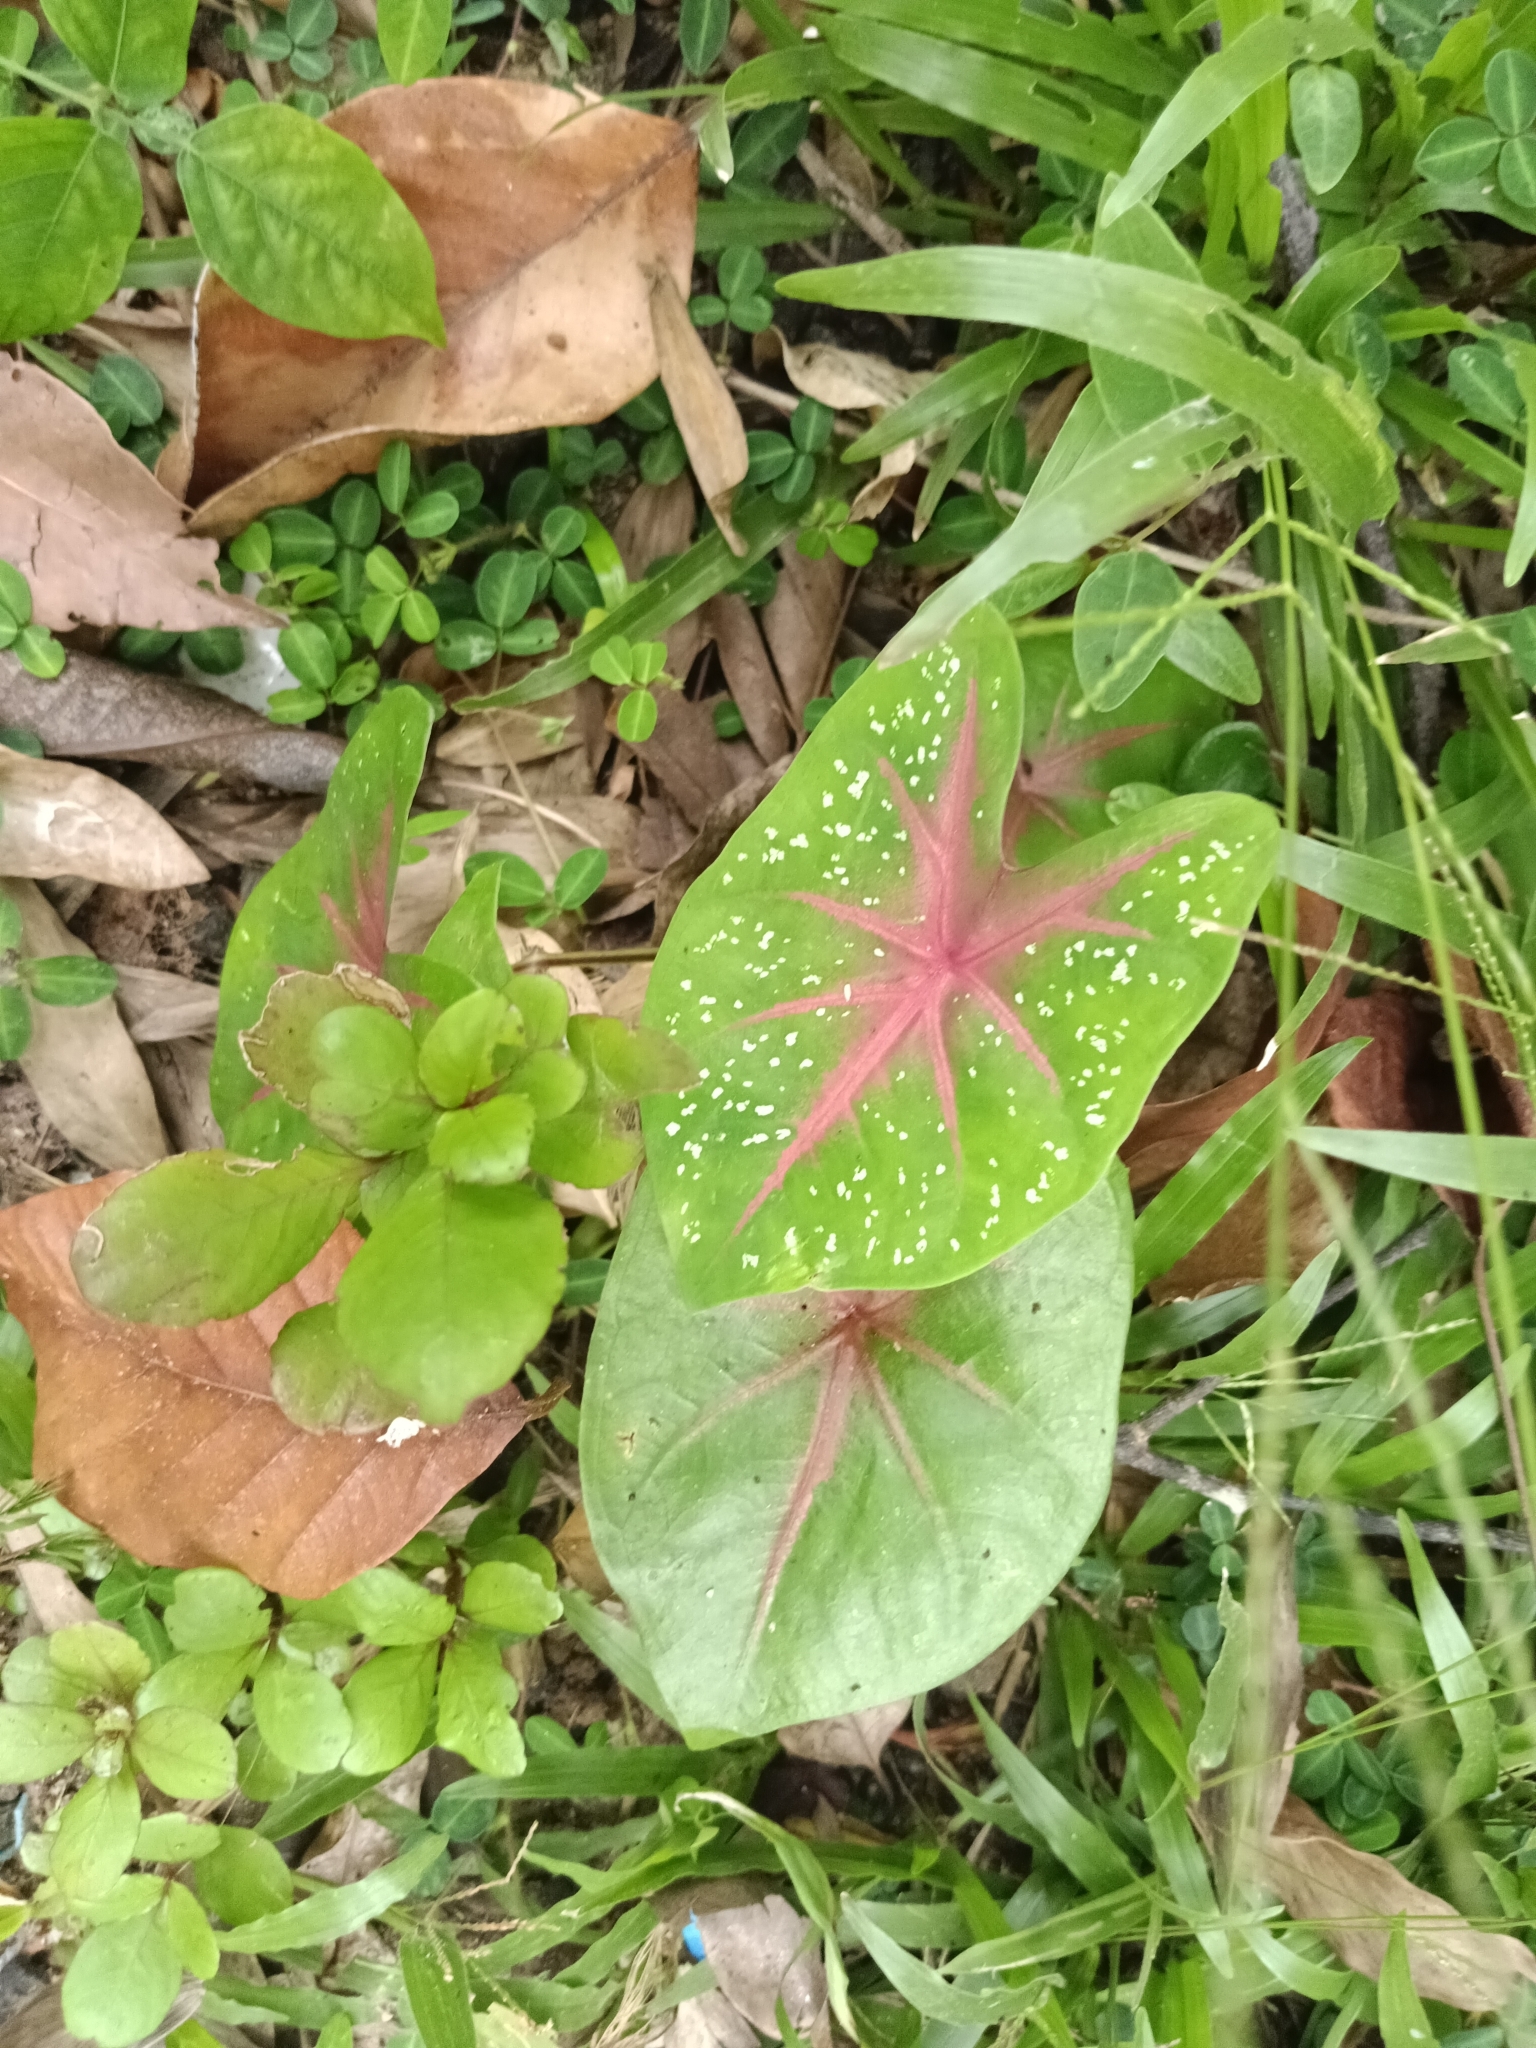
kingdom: Plantae
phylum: Tracheophyta
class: Liliopsida
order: Alismatales
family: Araceae
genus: Caladium
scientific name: Caladium bicolor
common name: Artist's pallet
